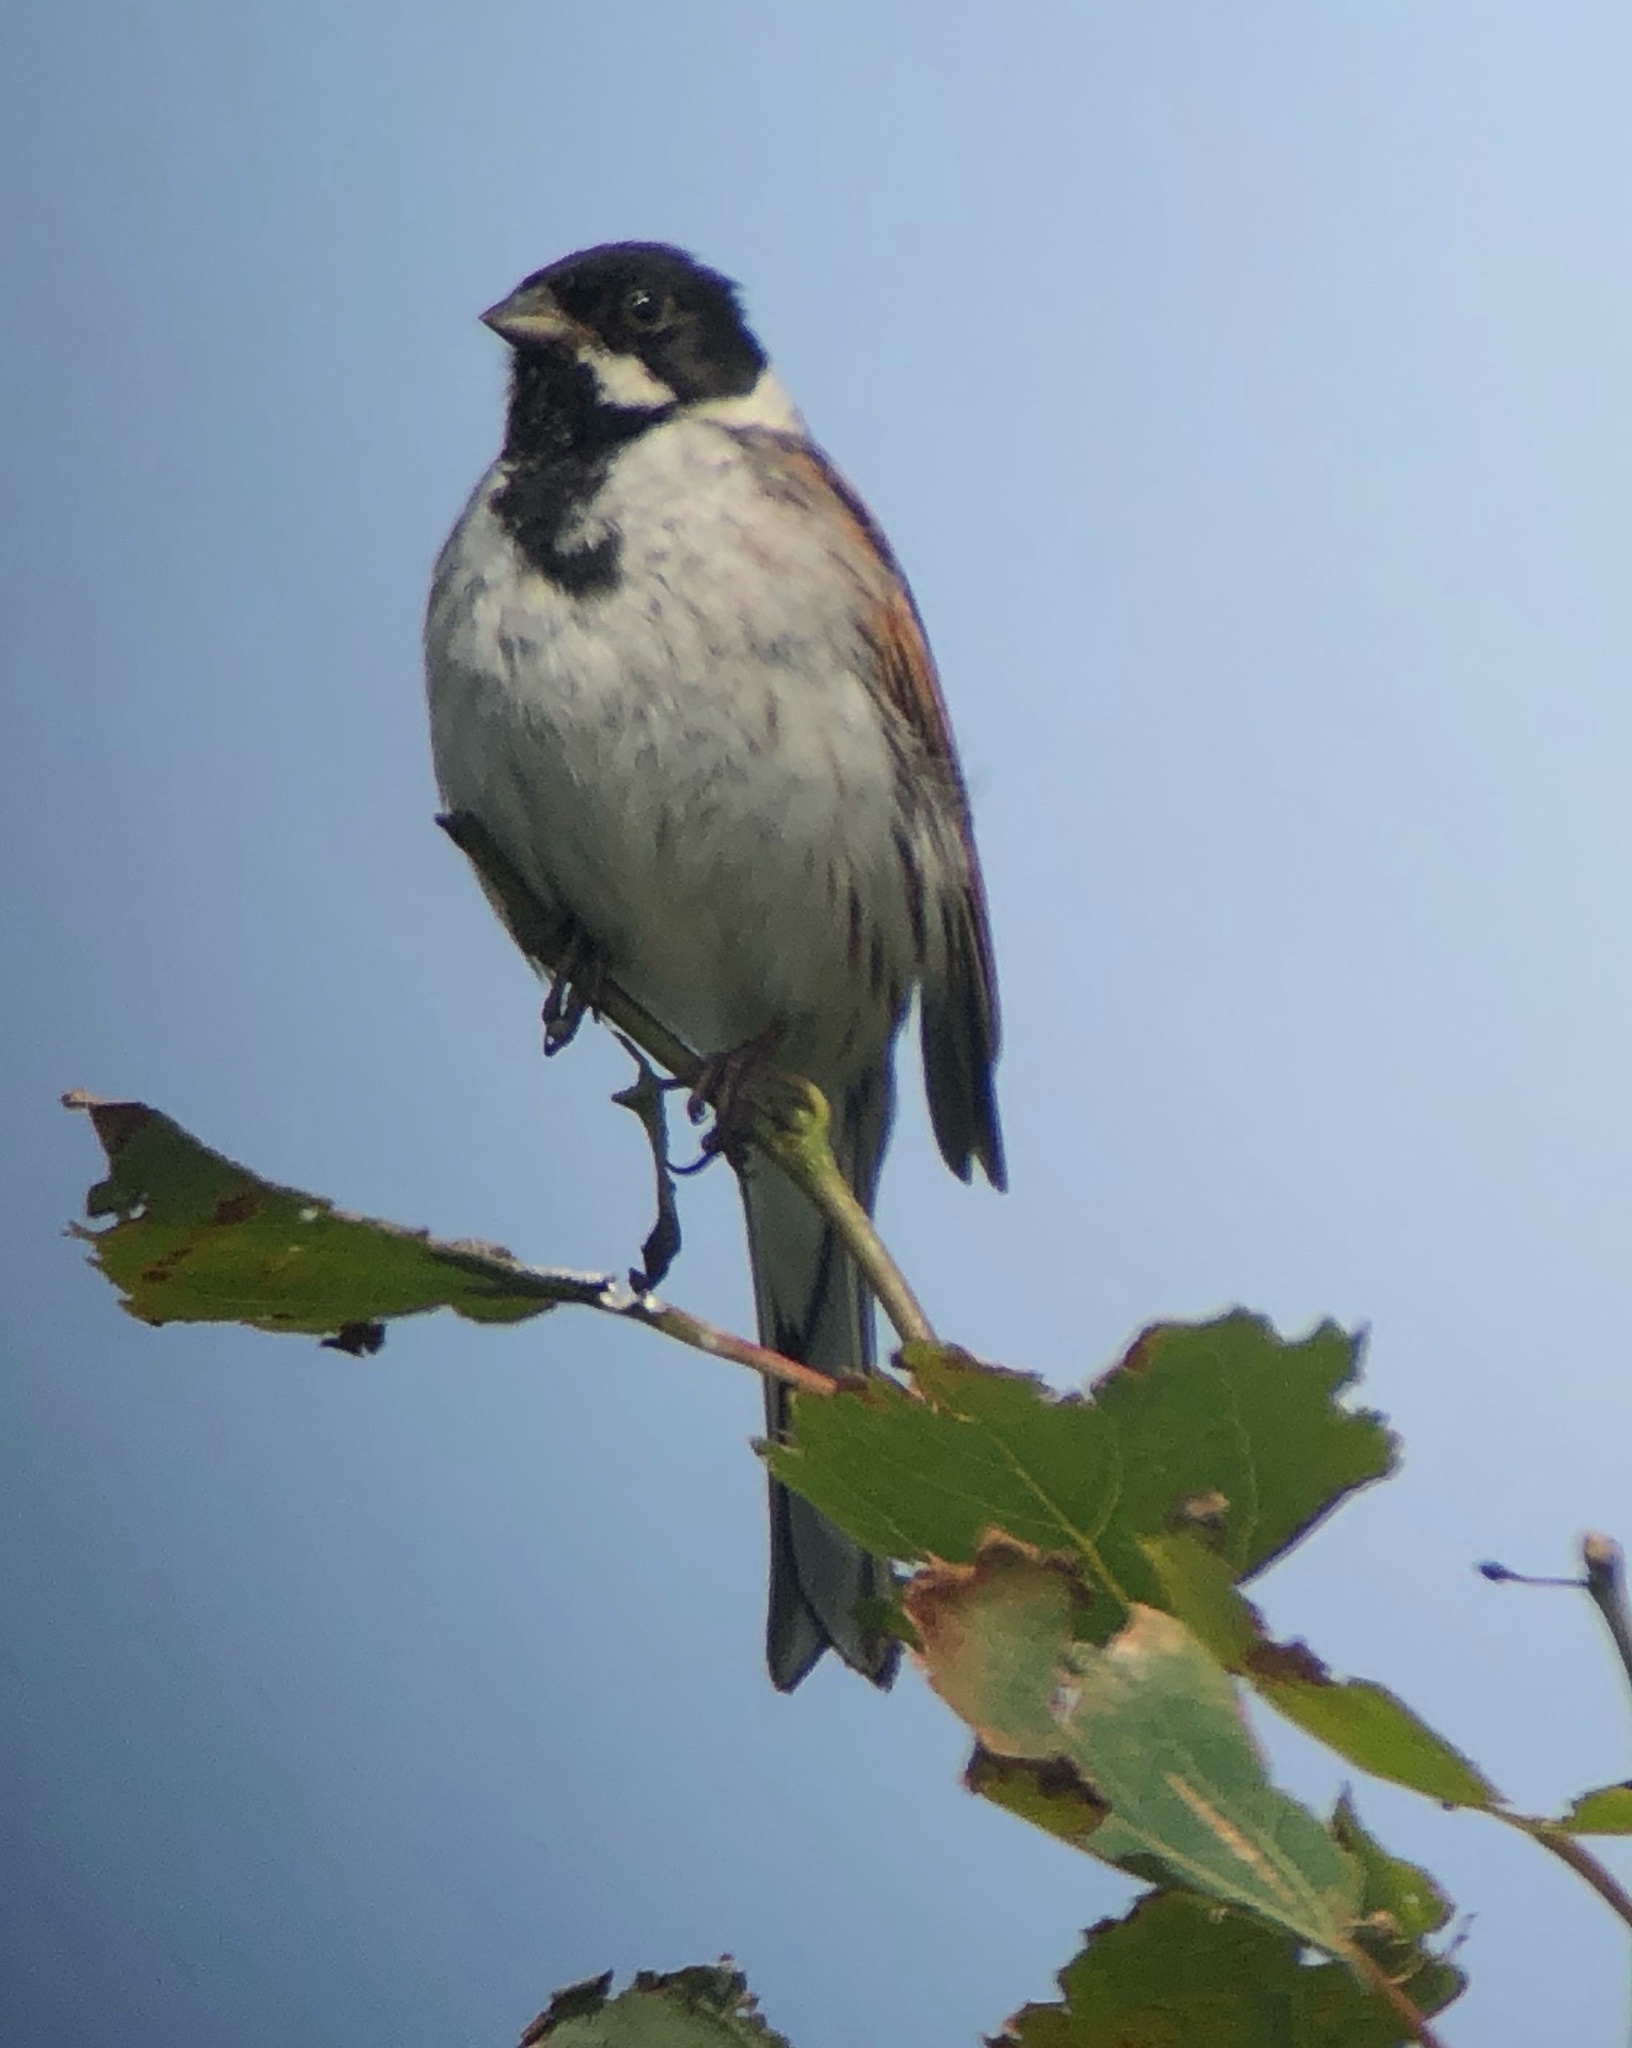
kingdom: Animalia
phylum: Chordata
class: Aves
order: Passeriformes
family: Emberizidae
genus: Emberiza
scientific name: Emberiza schoeniclus
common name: Reed bunting
